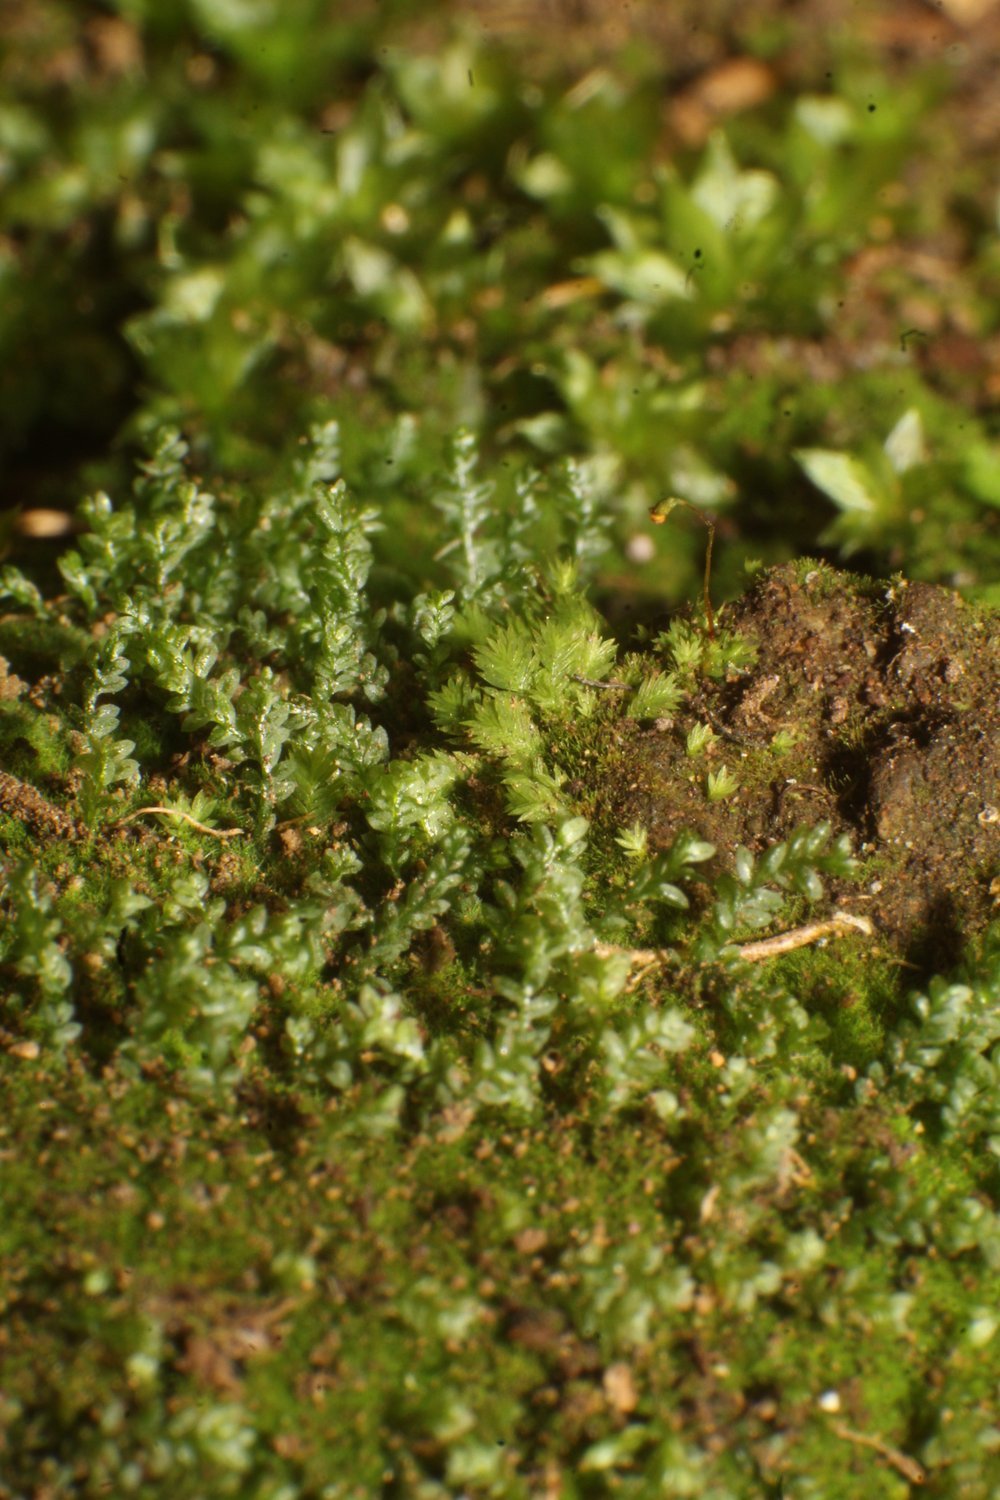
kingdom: Plantae
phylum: Bryophyta
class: Bryopsida
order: Pottiales
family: Mitteniaceae
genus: Mittenia
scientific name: Mittenia plumula
